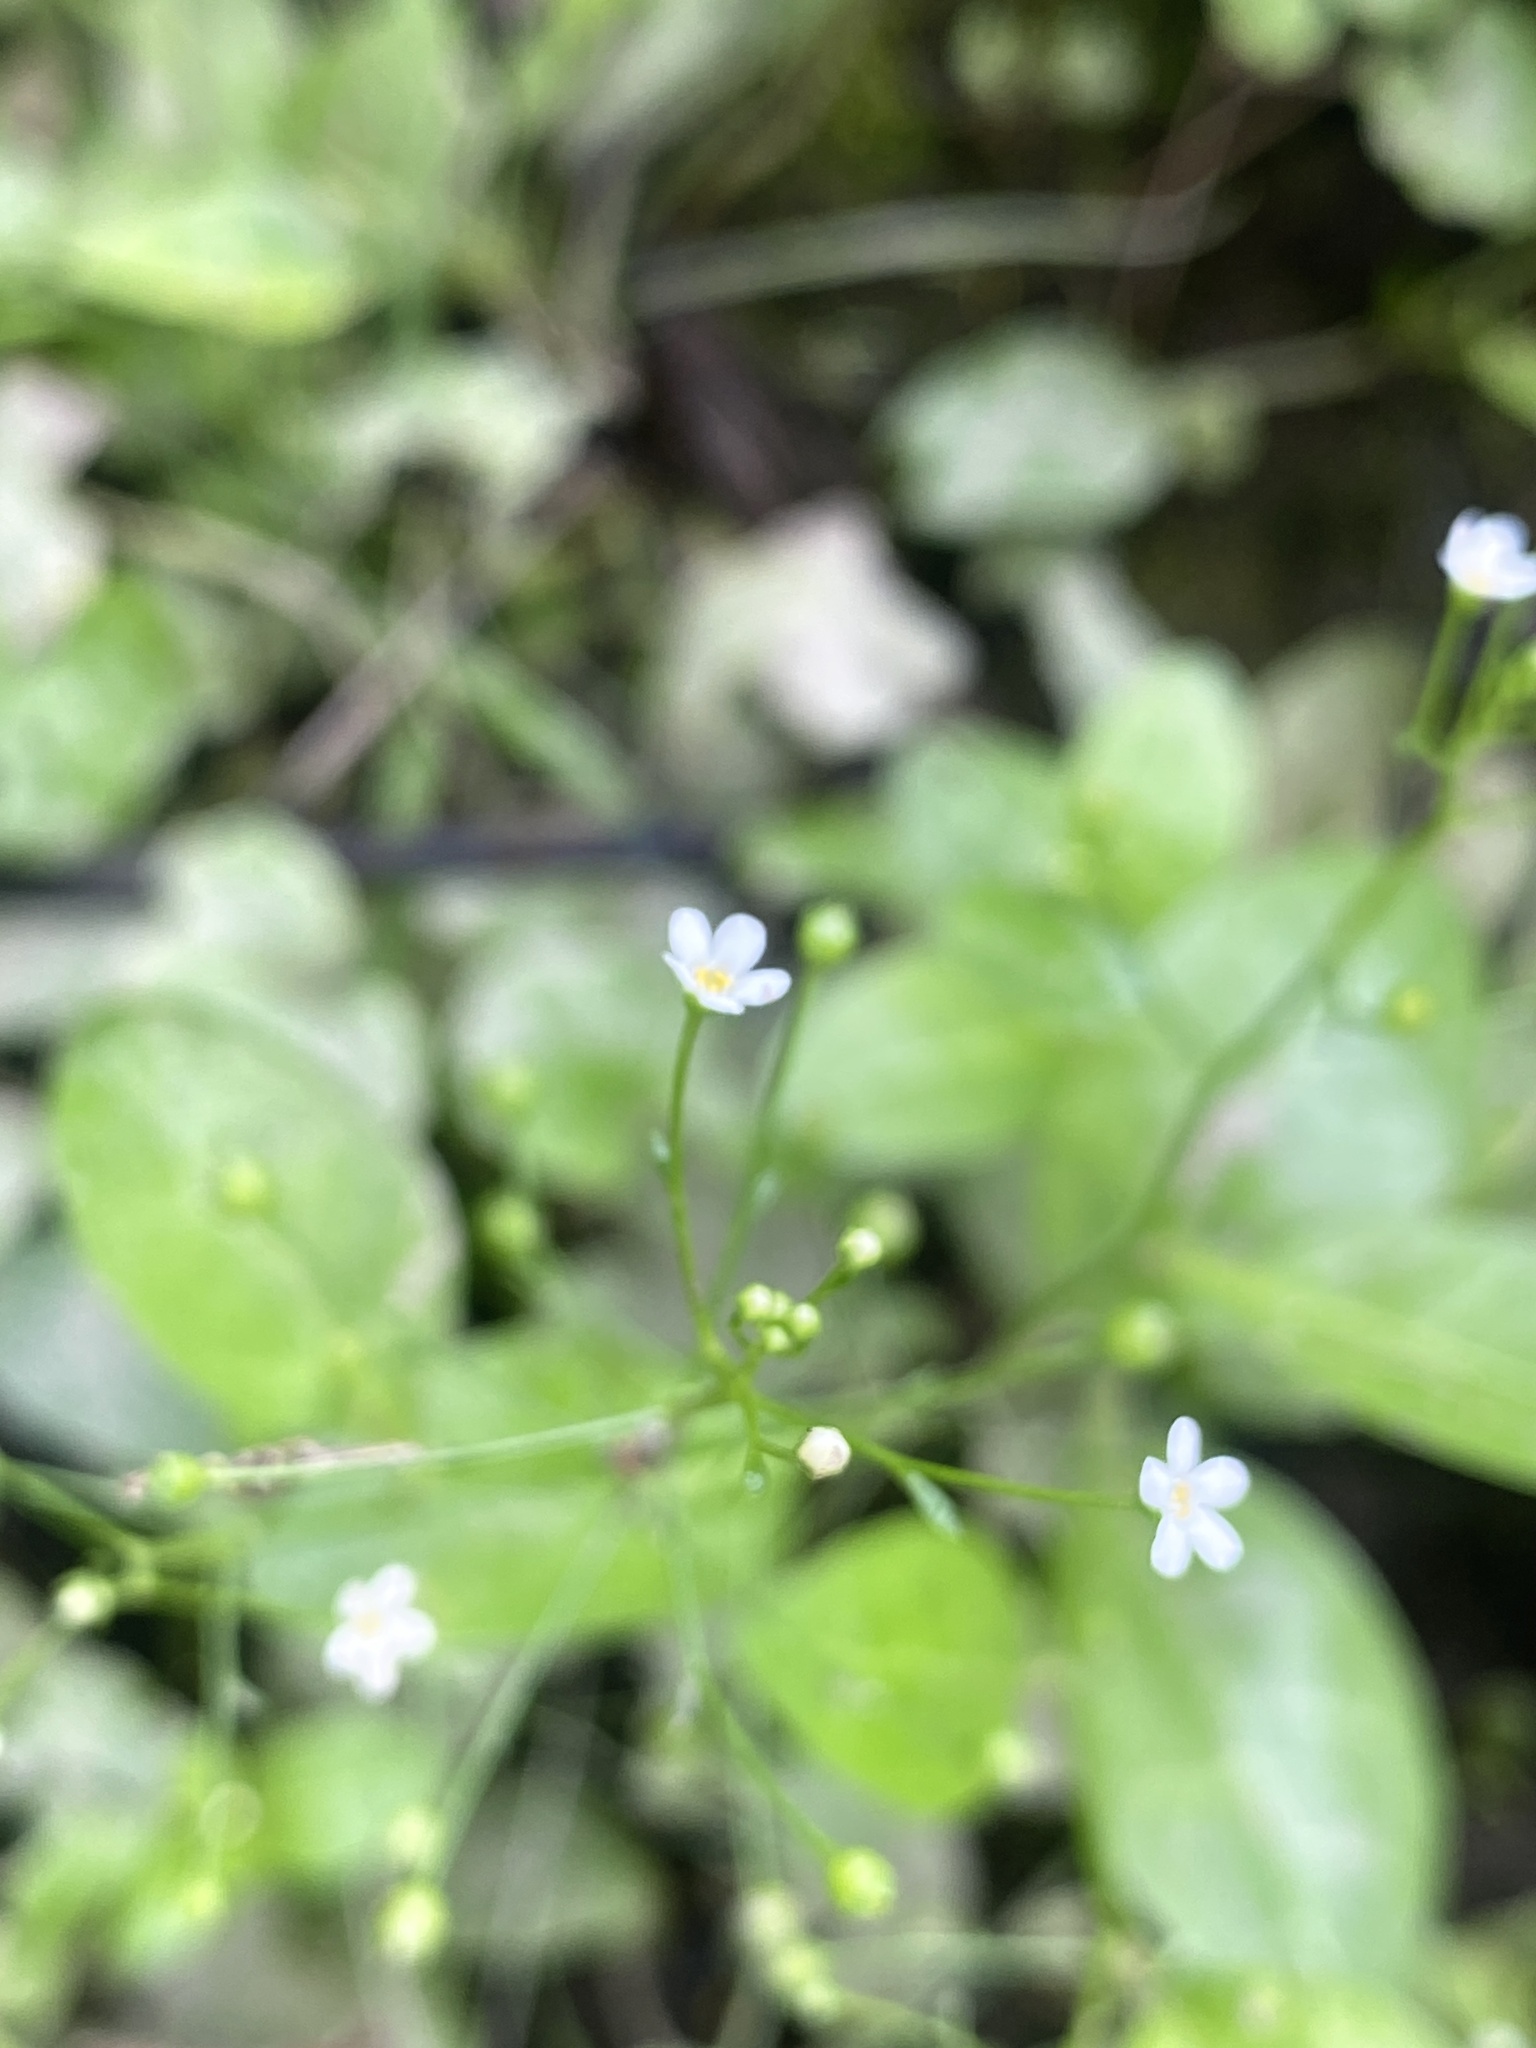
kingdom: Plantae
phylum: Tracheophyta
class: Magnoliopsida
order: Ericales
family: Primulaceae
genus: Samolus
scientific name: Samolus parviflorus
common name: False water pimpernel
